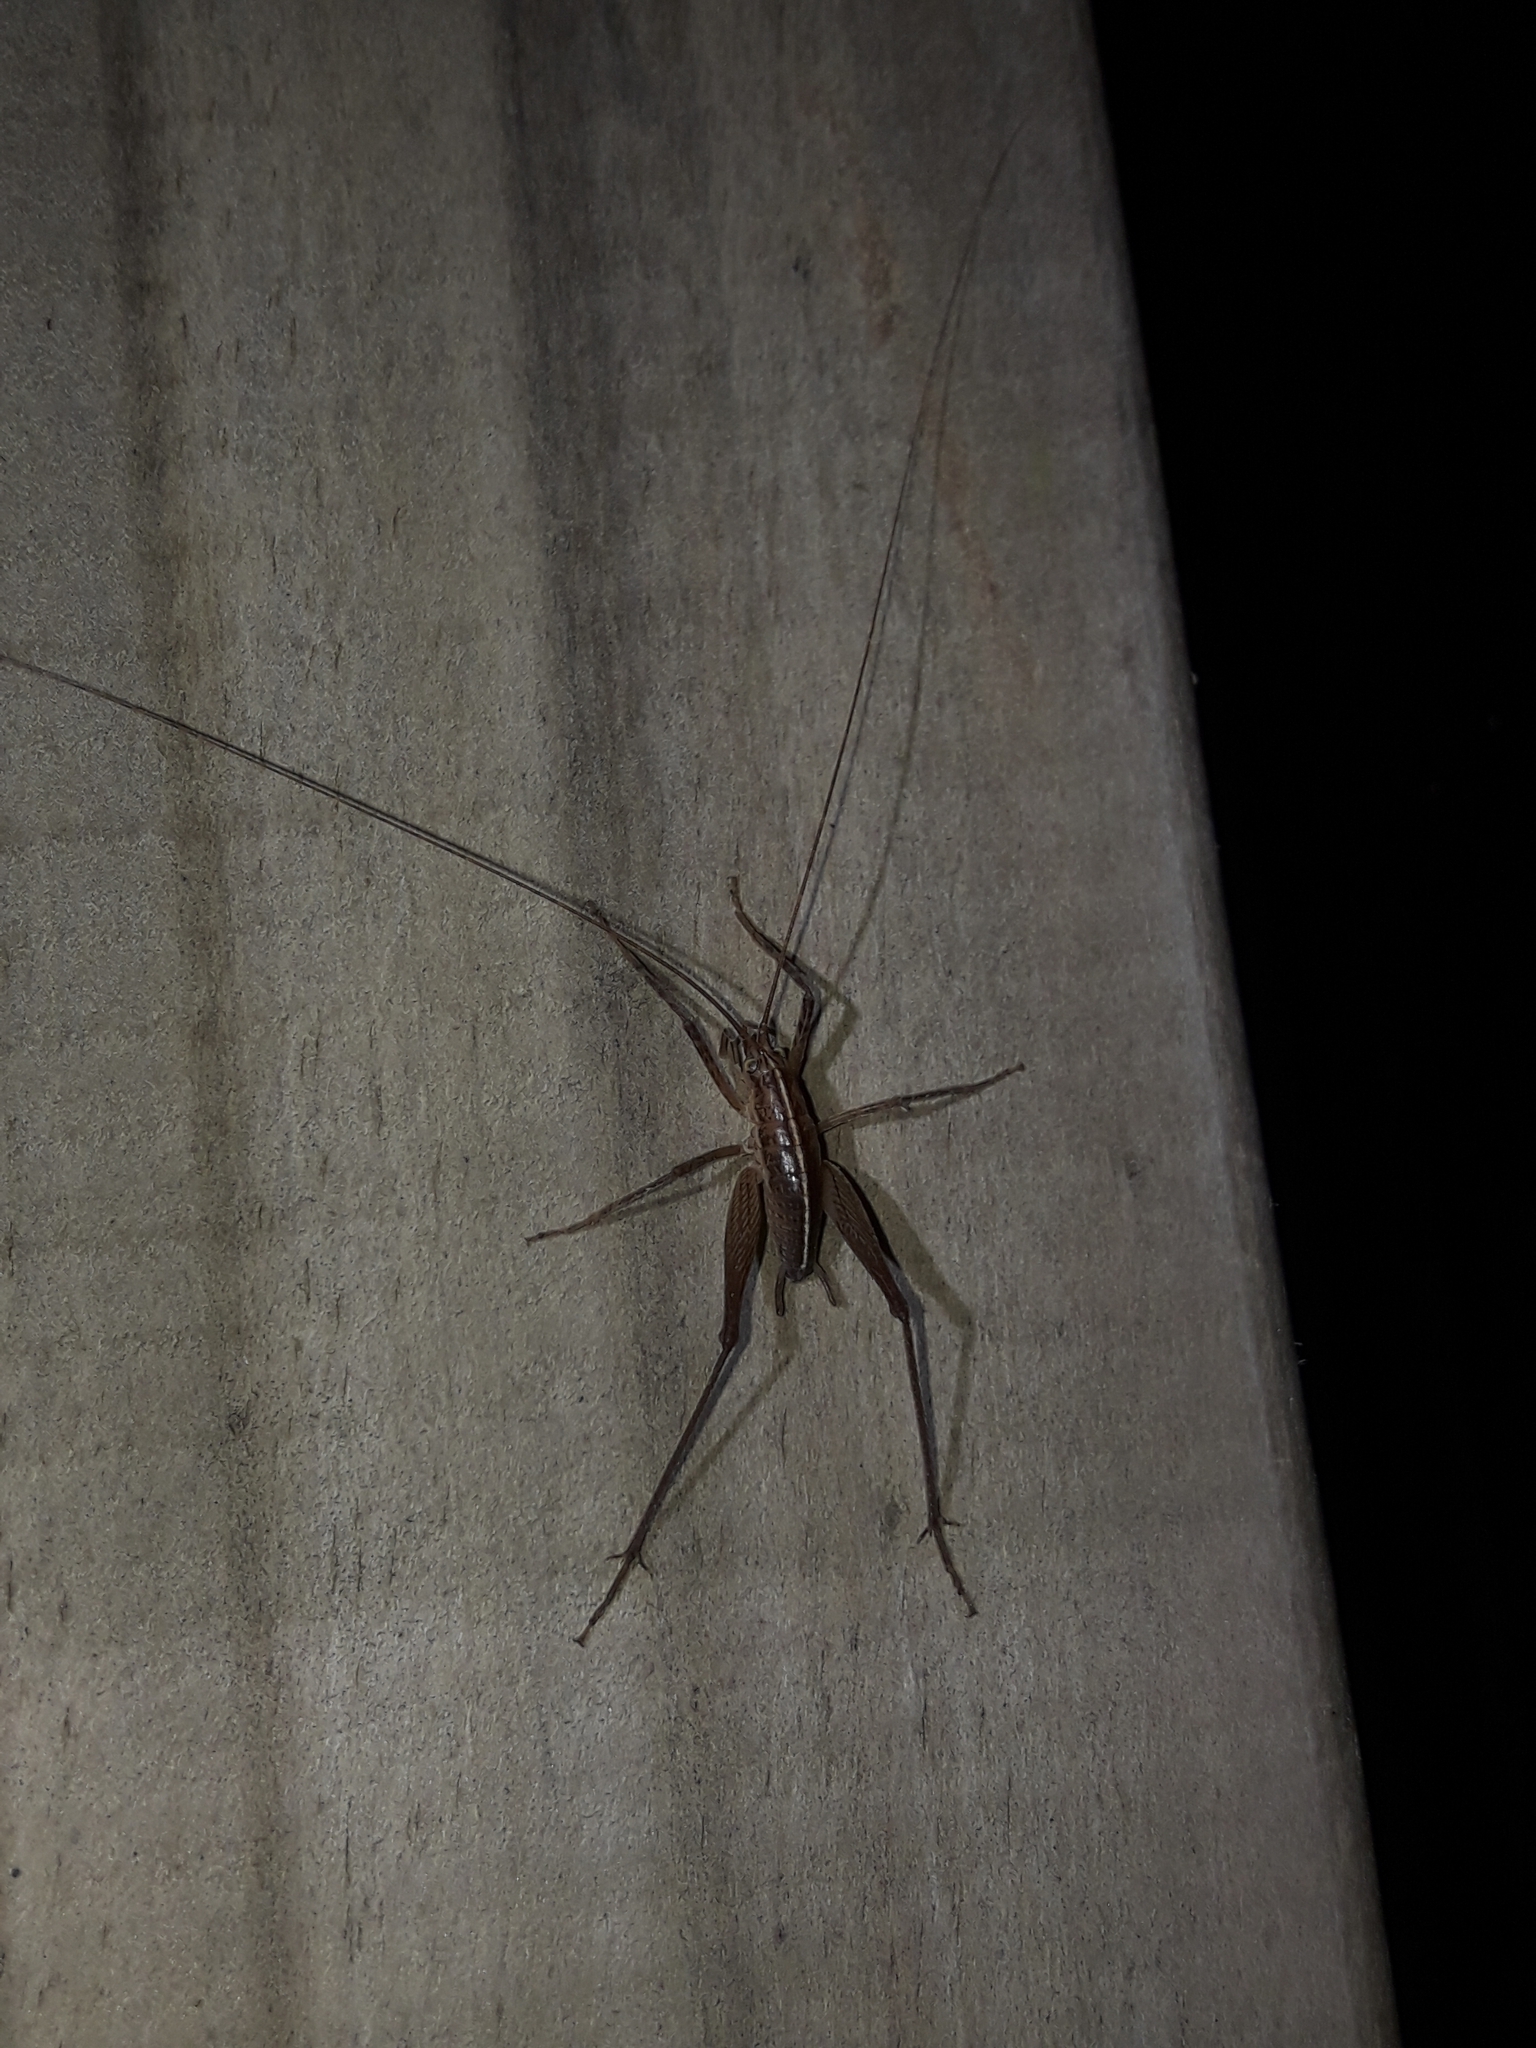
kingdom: Animalia
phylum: Arthropoda
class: Insecta
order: Orthoptera
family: Rhaphidophoridae
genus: Talitropsis
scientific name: Talitropsis poduroides
